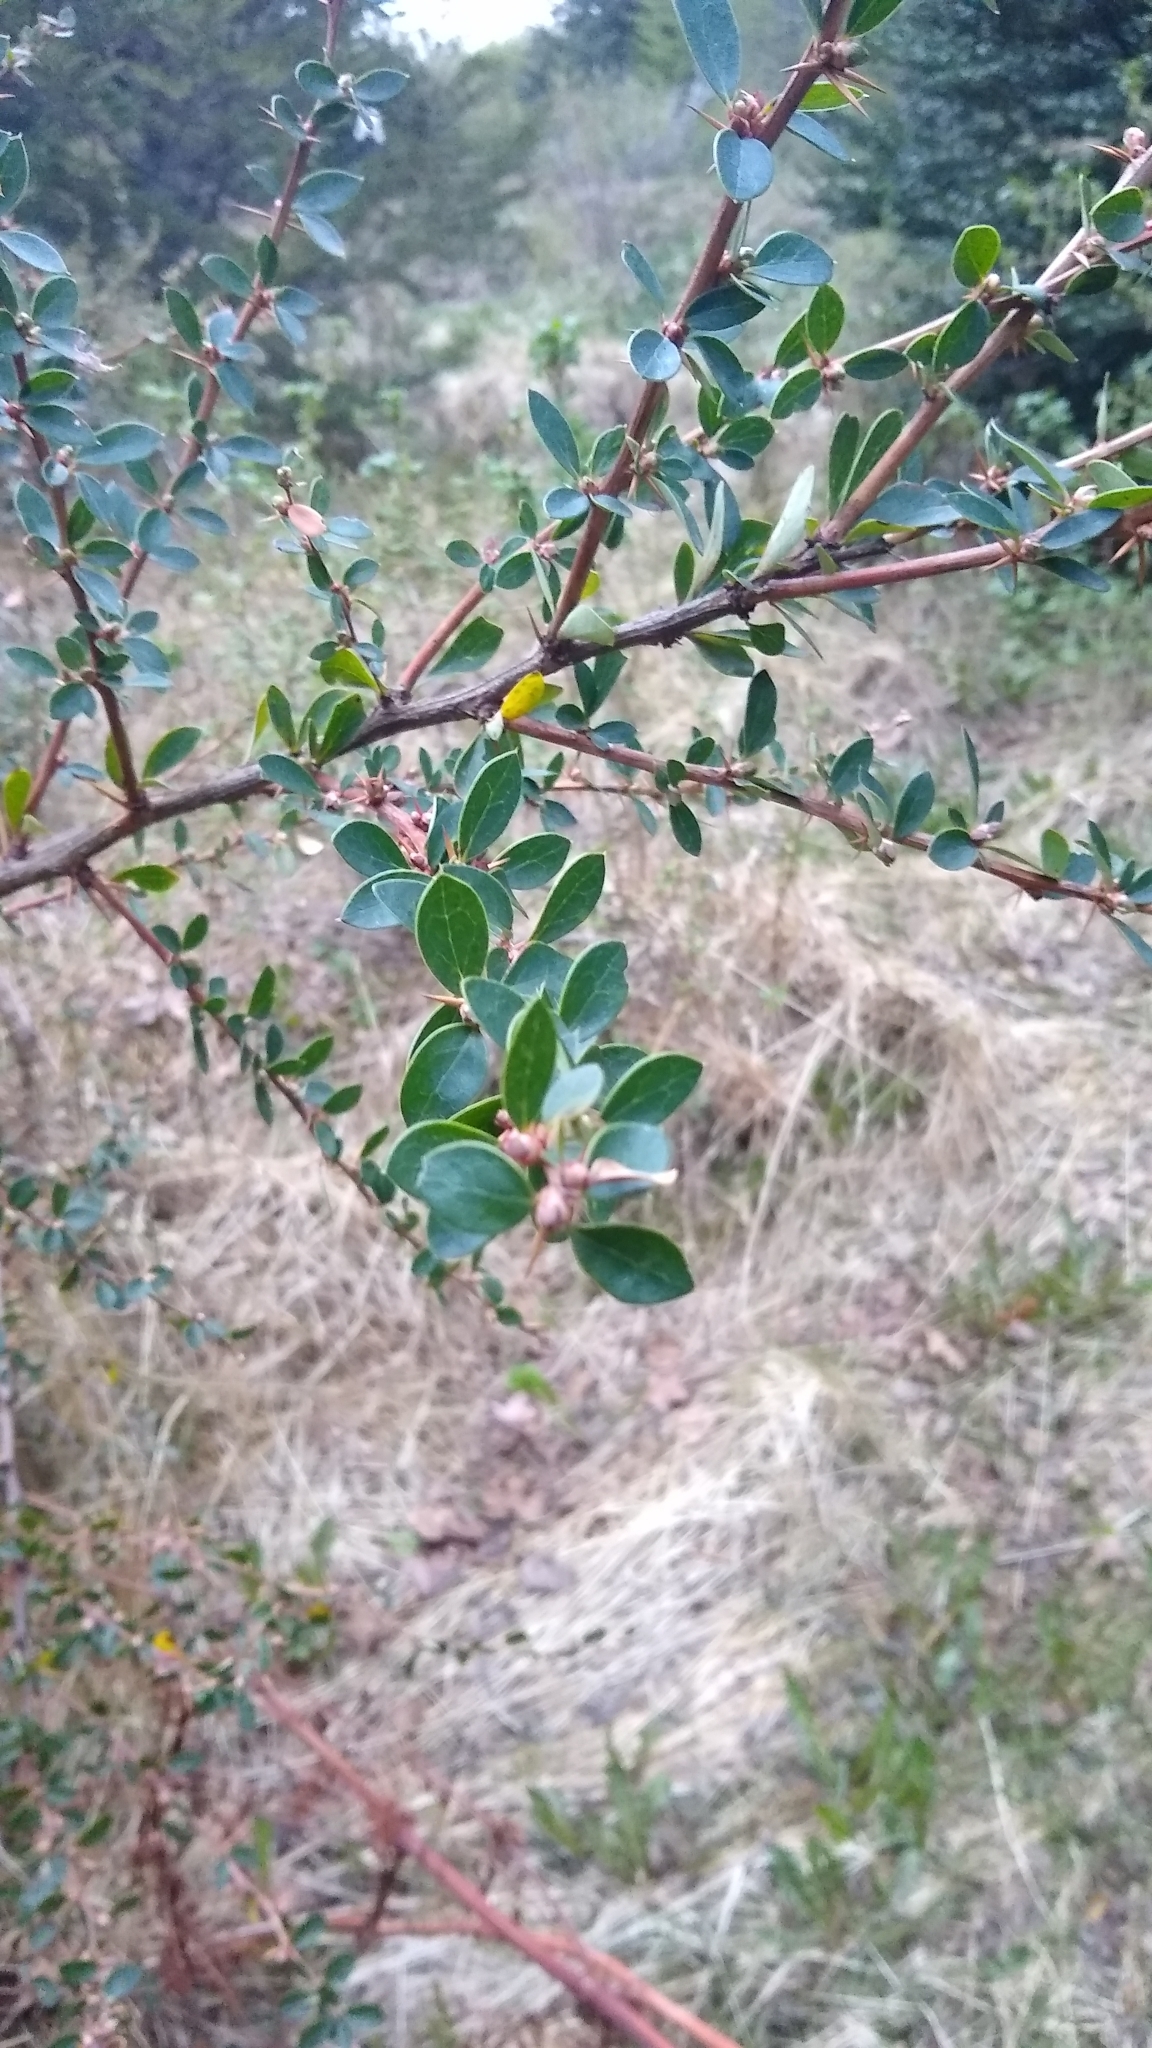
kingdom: Plantae
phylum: Tracheophyta
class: Magnoliopsida
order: Ranunculales
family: Berberidaceae
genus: Berberis
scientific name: Berberis microphylla
